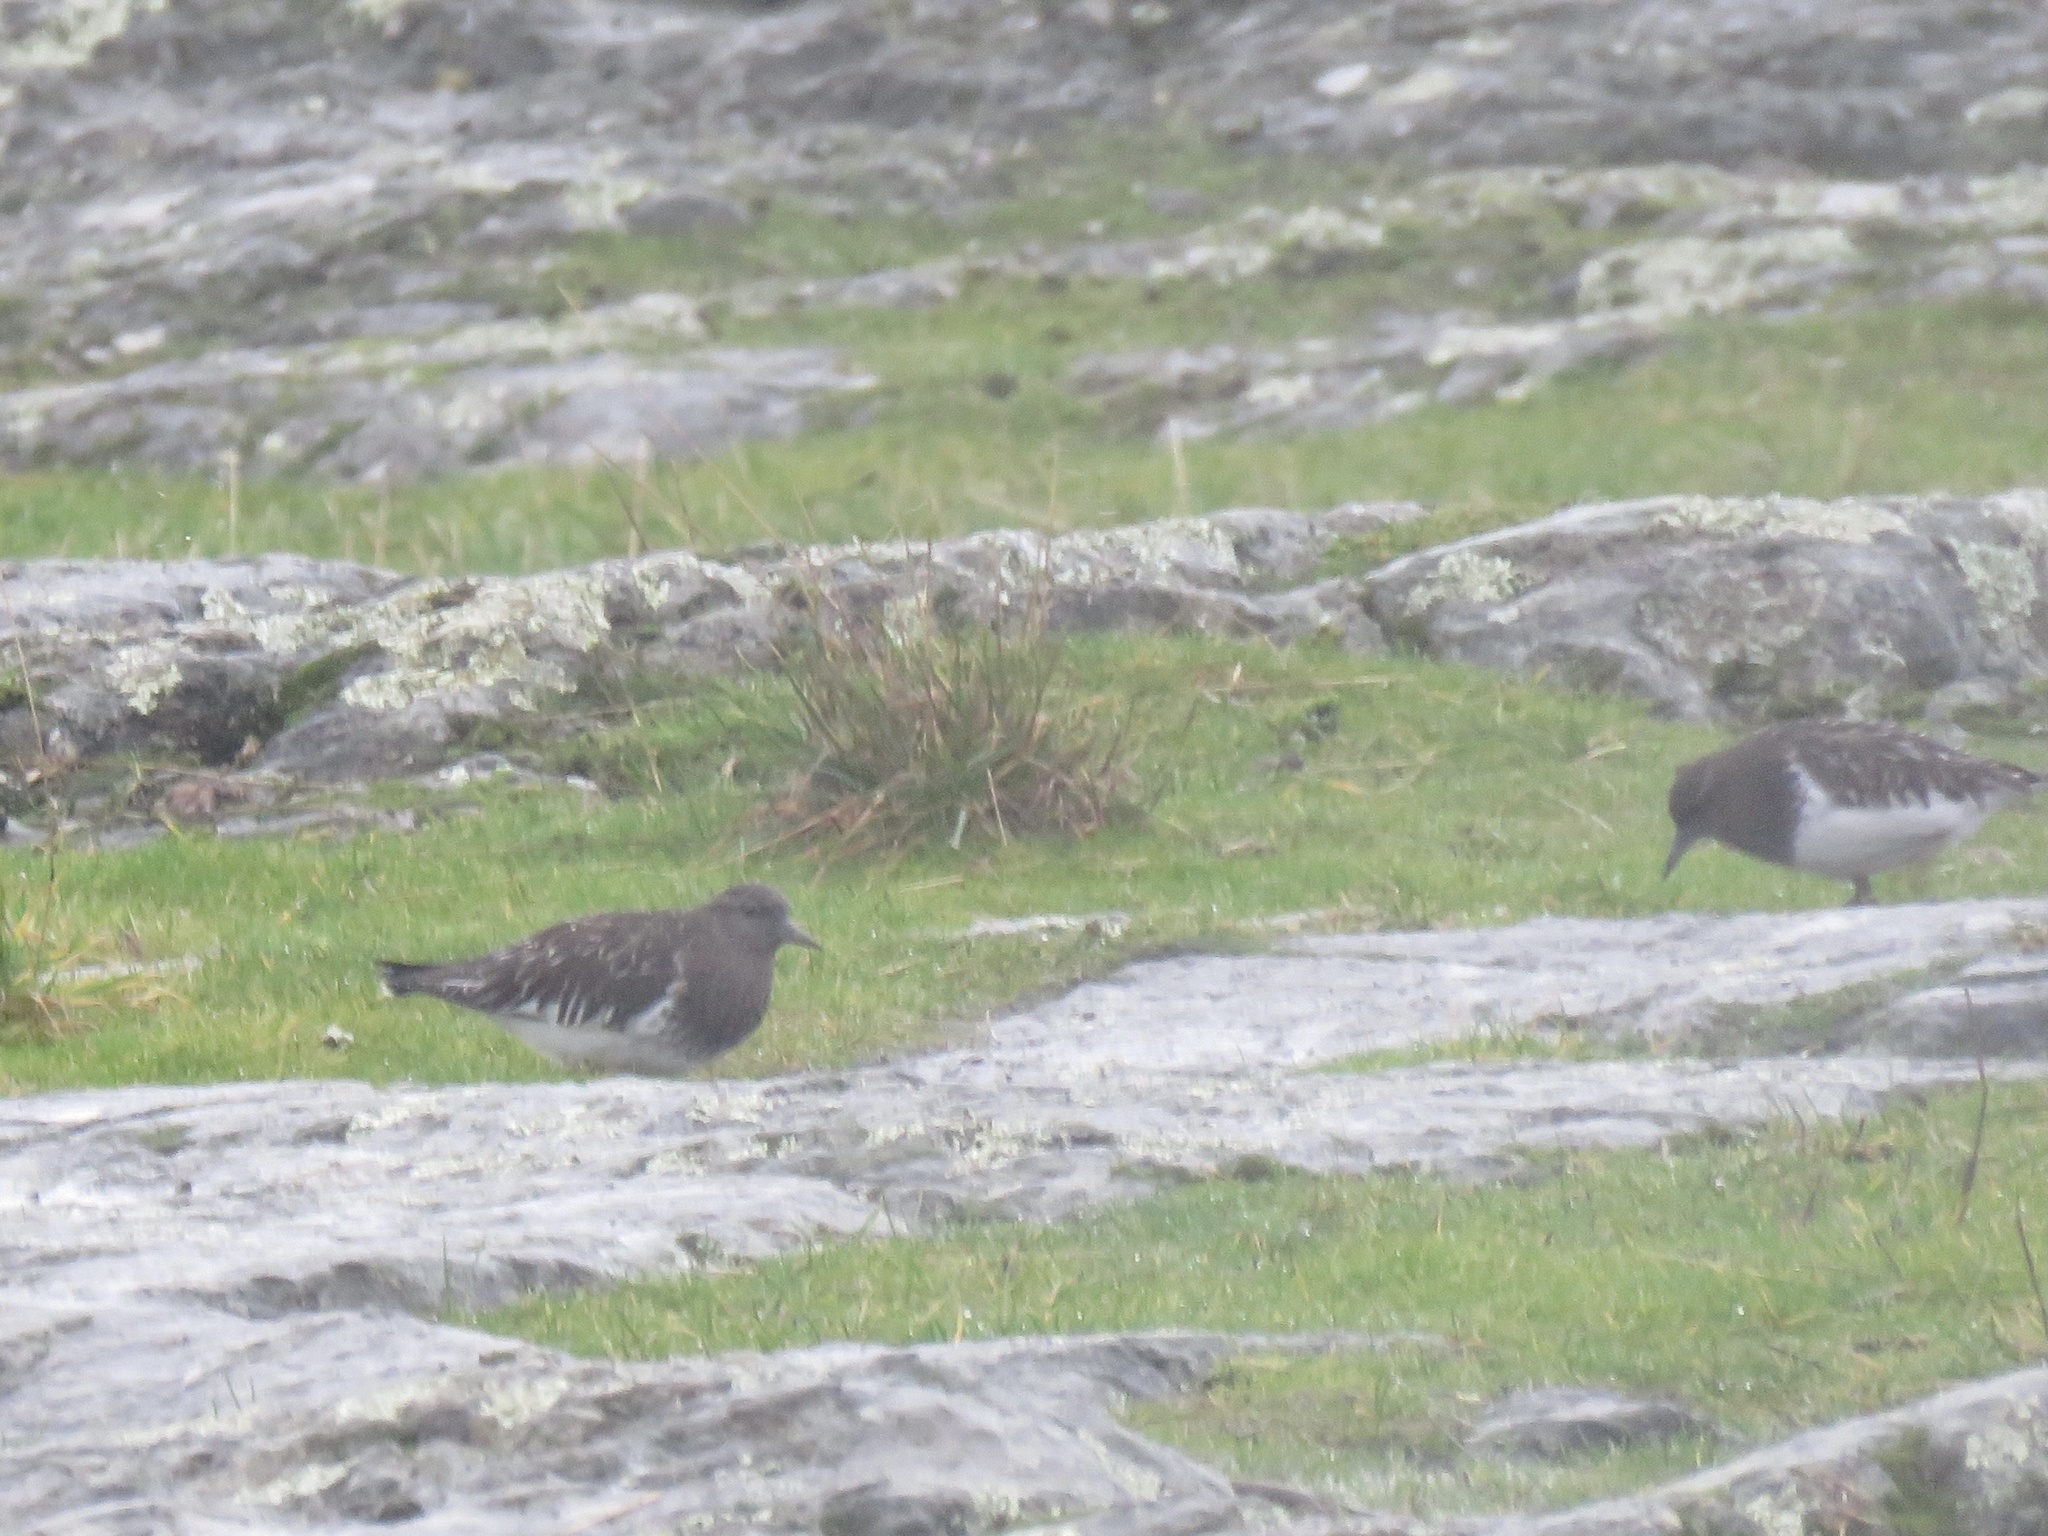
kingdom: Animalia
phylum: Chordata
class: Aves
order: Charadriiformes
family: Scolopacidae
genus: Arenaria
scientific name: Arenaria melanocephala
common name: Black turnstone
